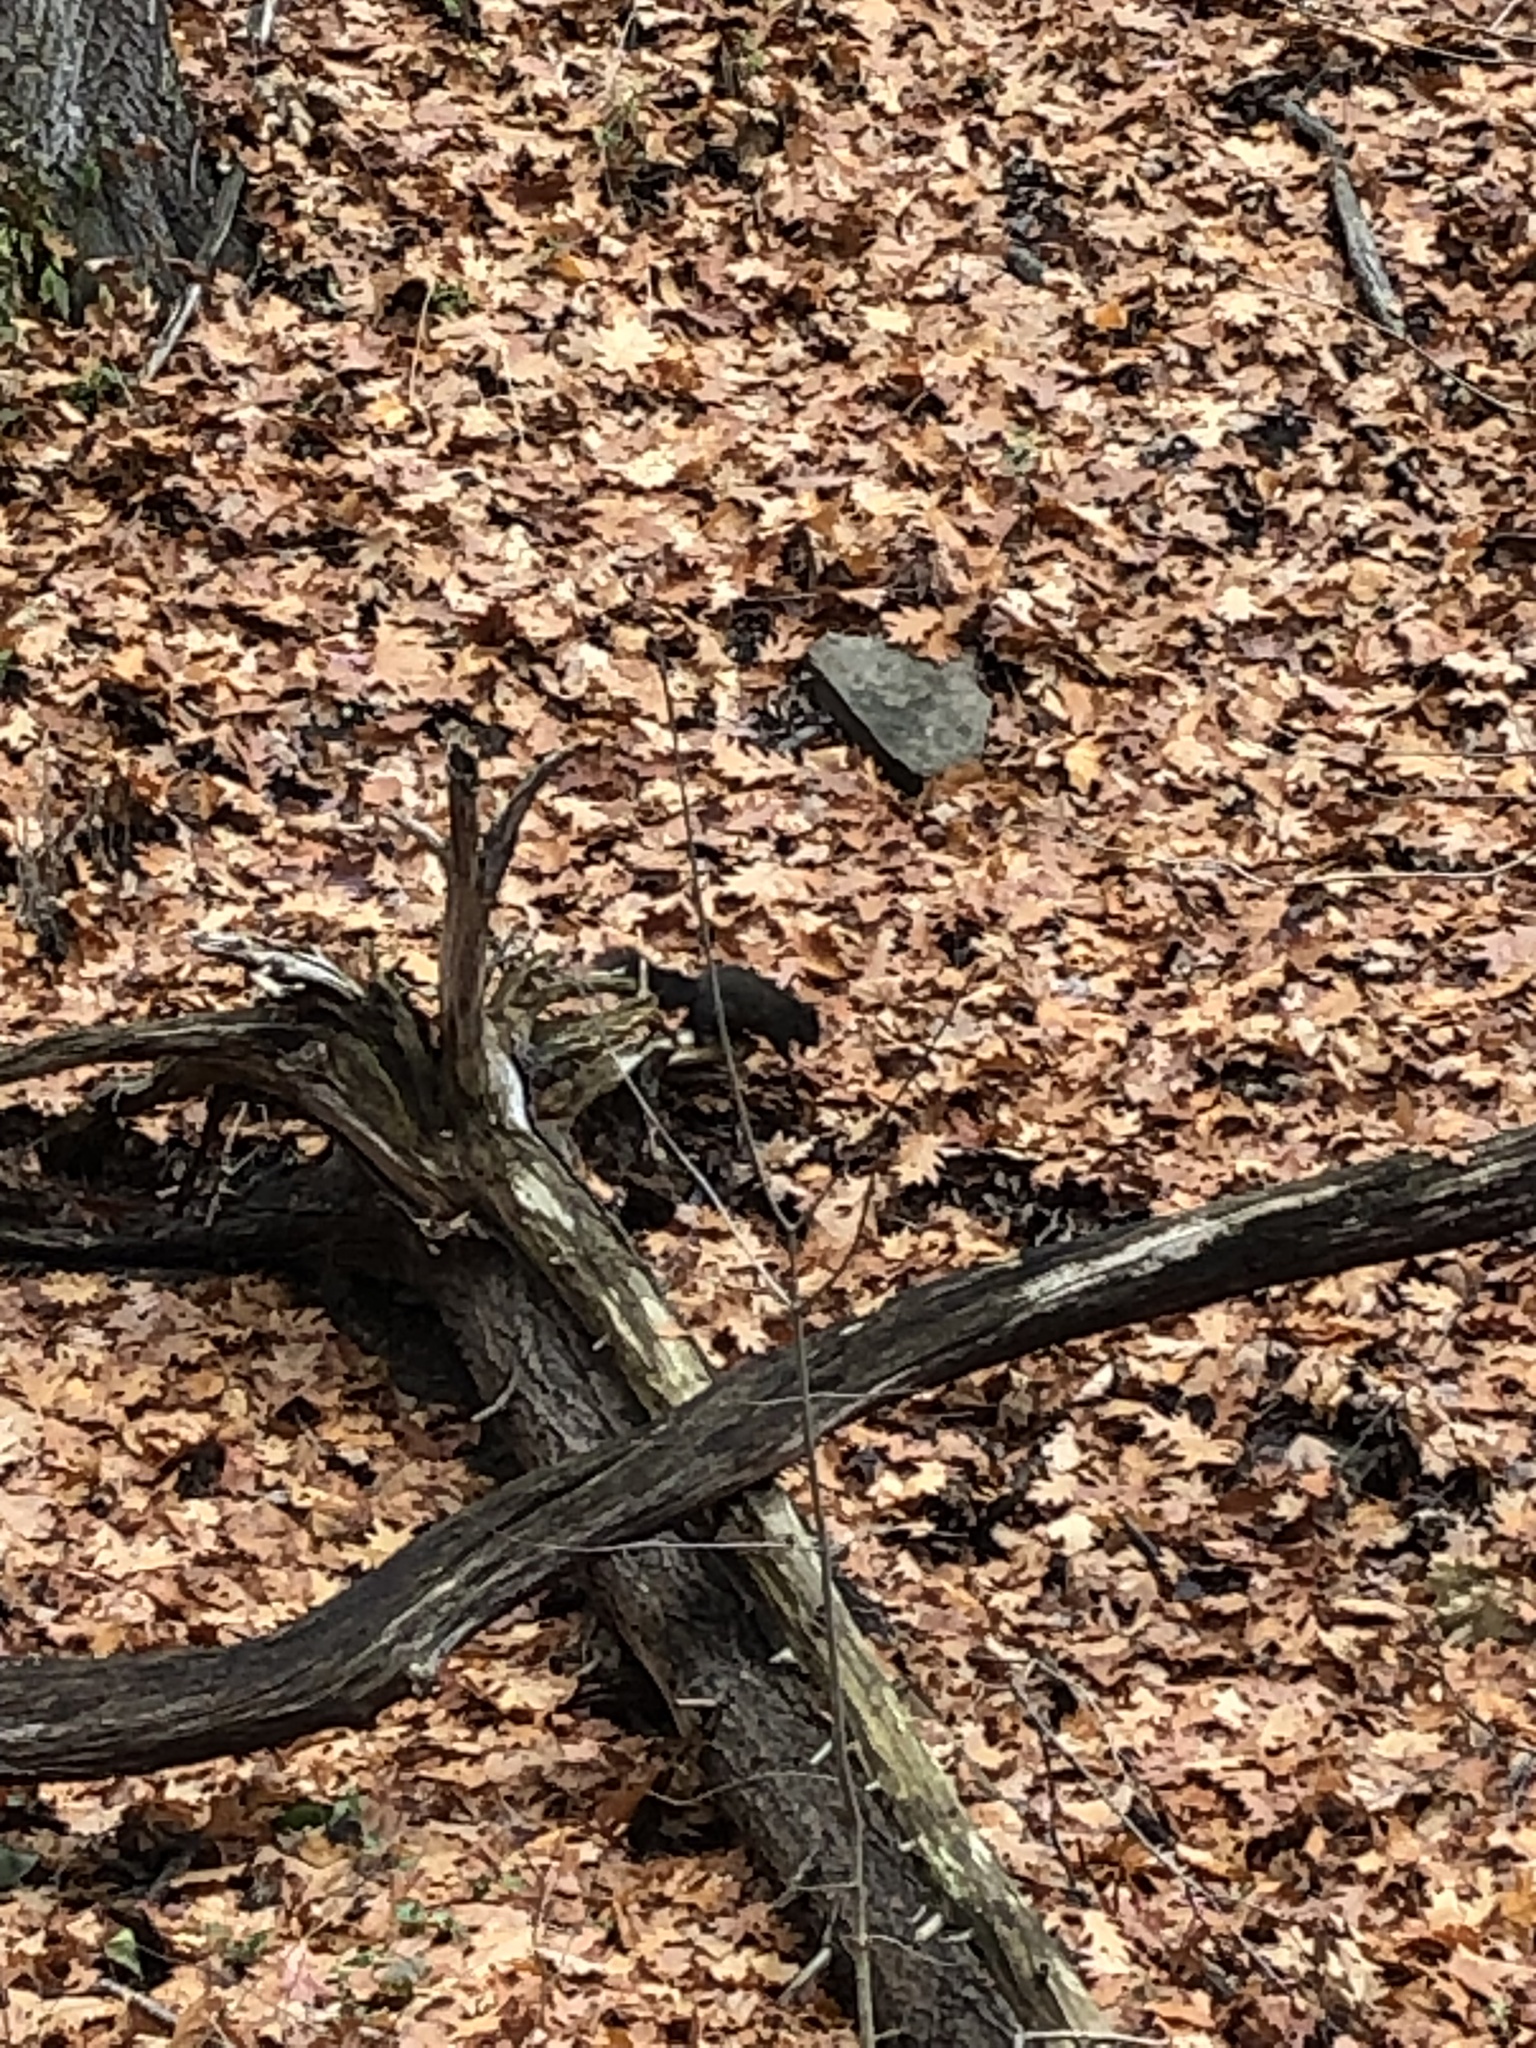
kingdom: Animalia
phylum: Chordata
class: Mammalia
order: Rodentia
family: Sciuridae
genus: Sciurus
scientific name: Sciurus carolinensis
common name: Eastern gray squirrel
